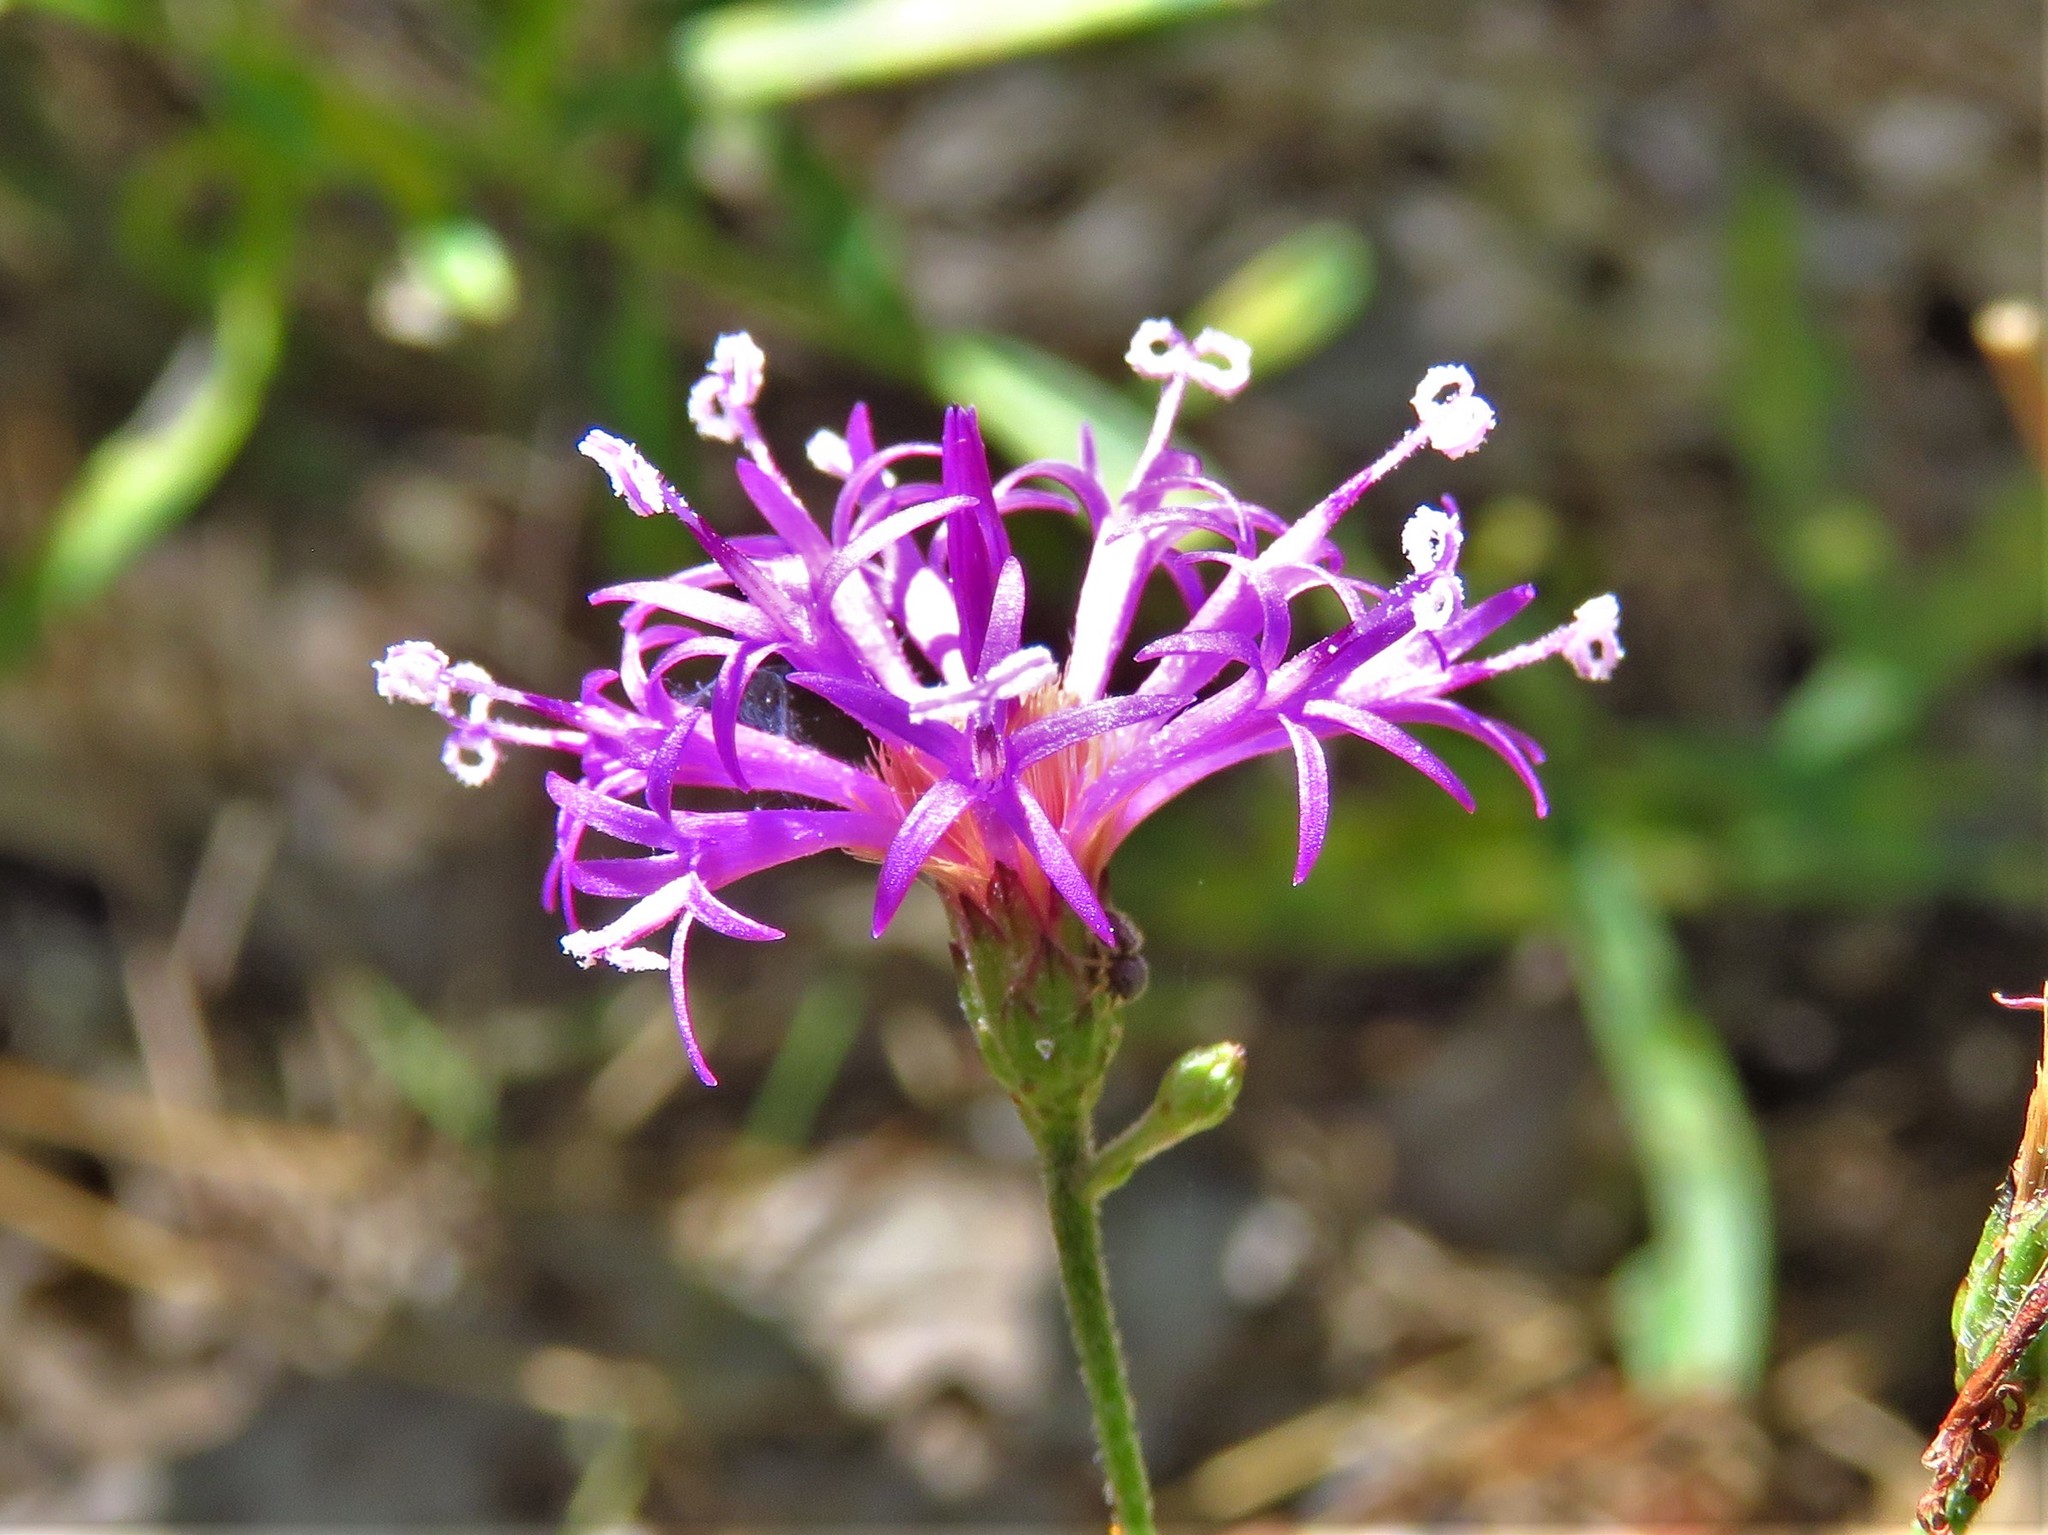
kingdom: Plantae
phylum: Tracheophyta
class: Magnoliopsida
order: Asterales
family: Asteraceae
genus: Vernonia
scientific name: Vernonia texana
